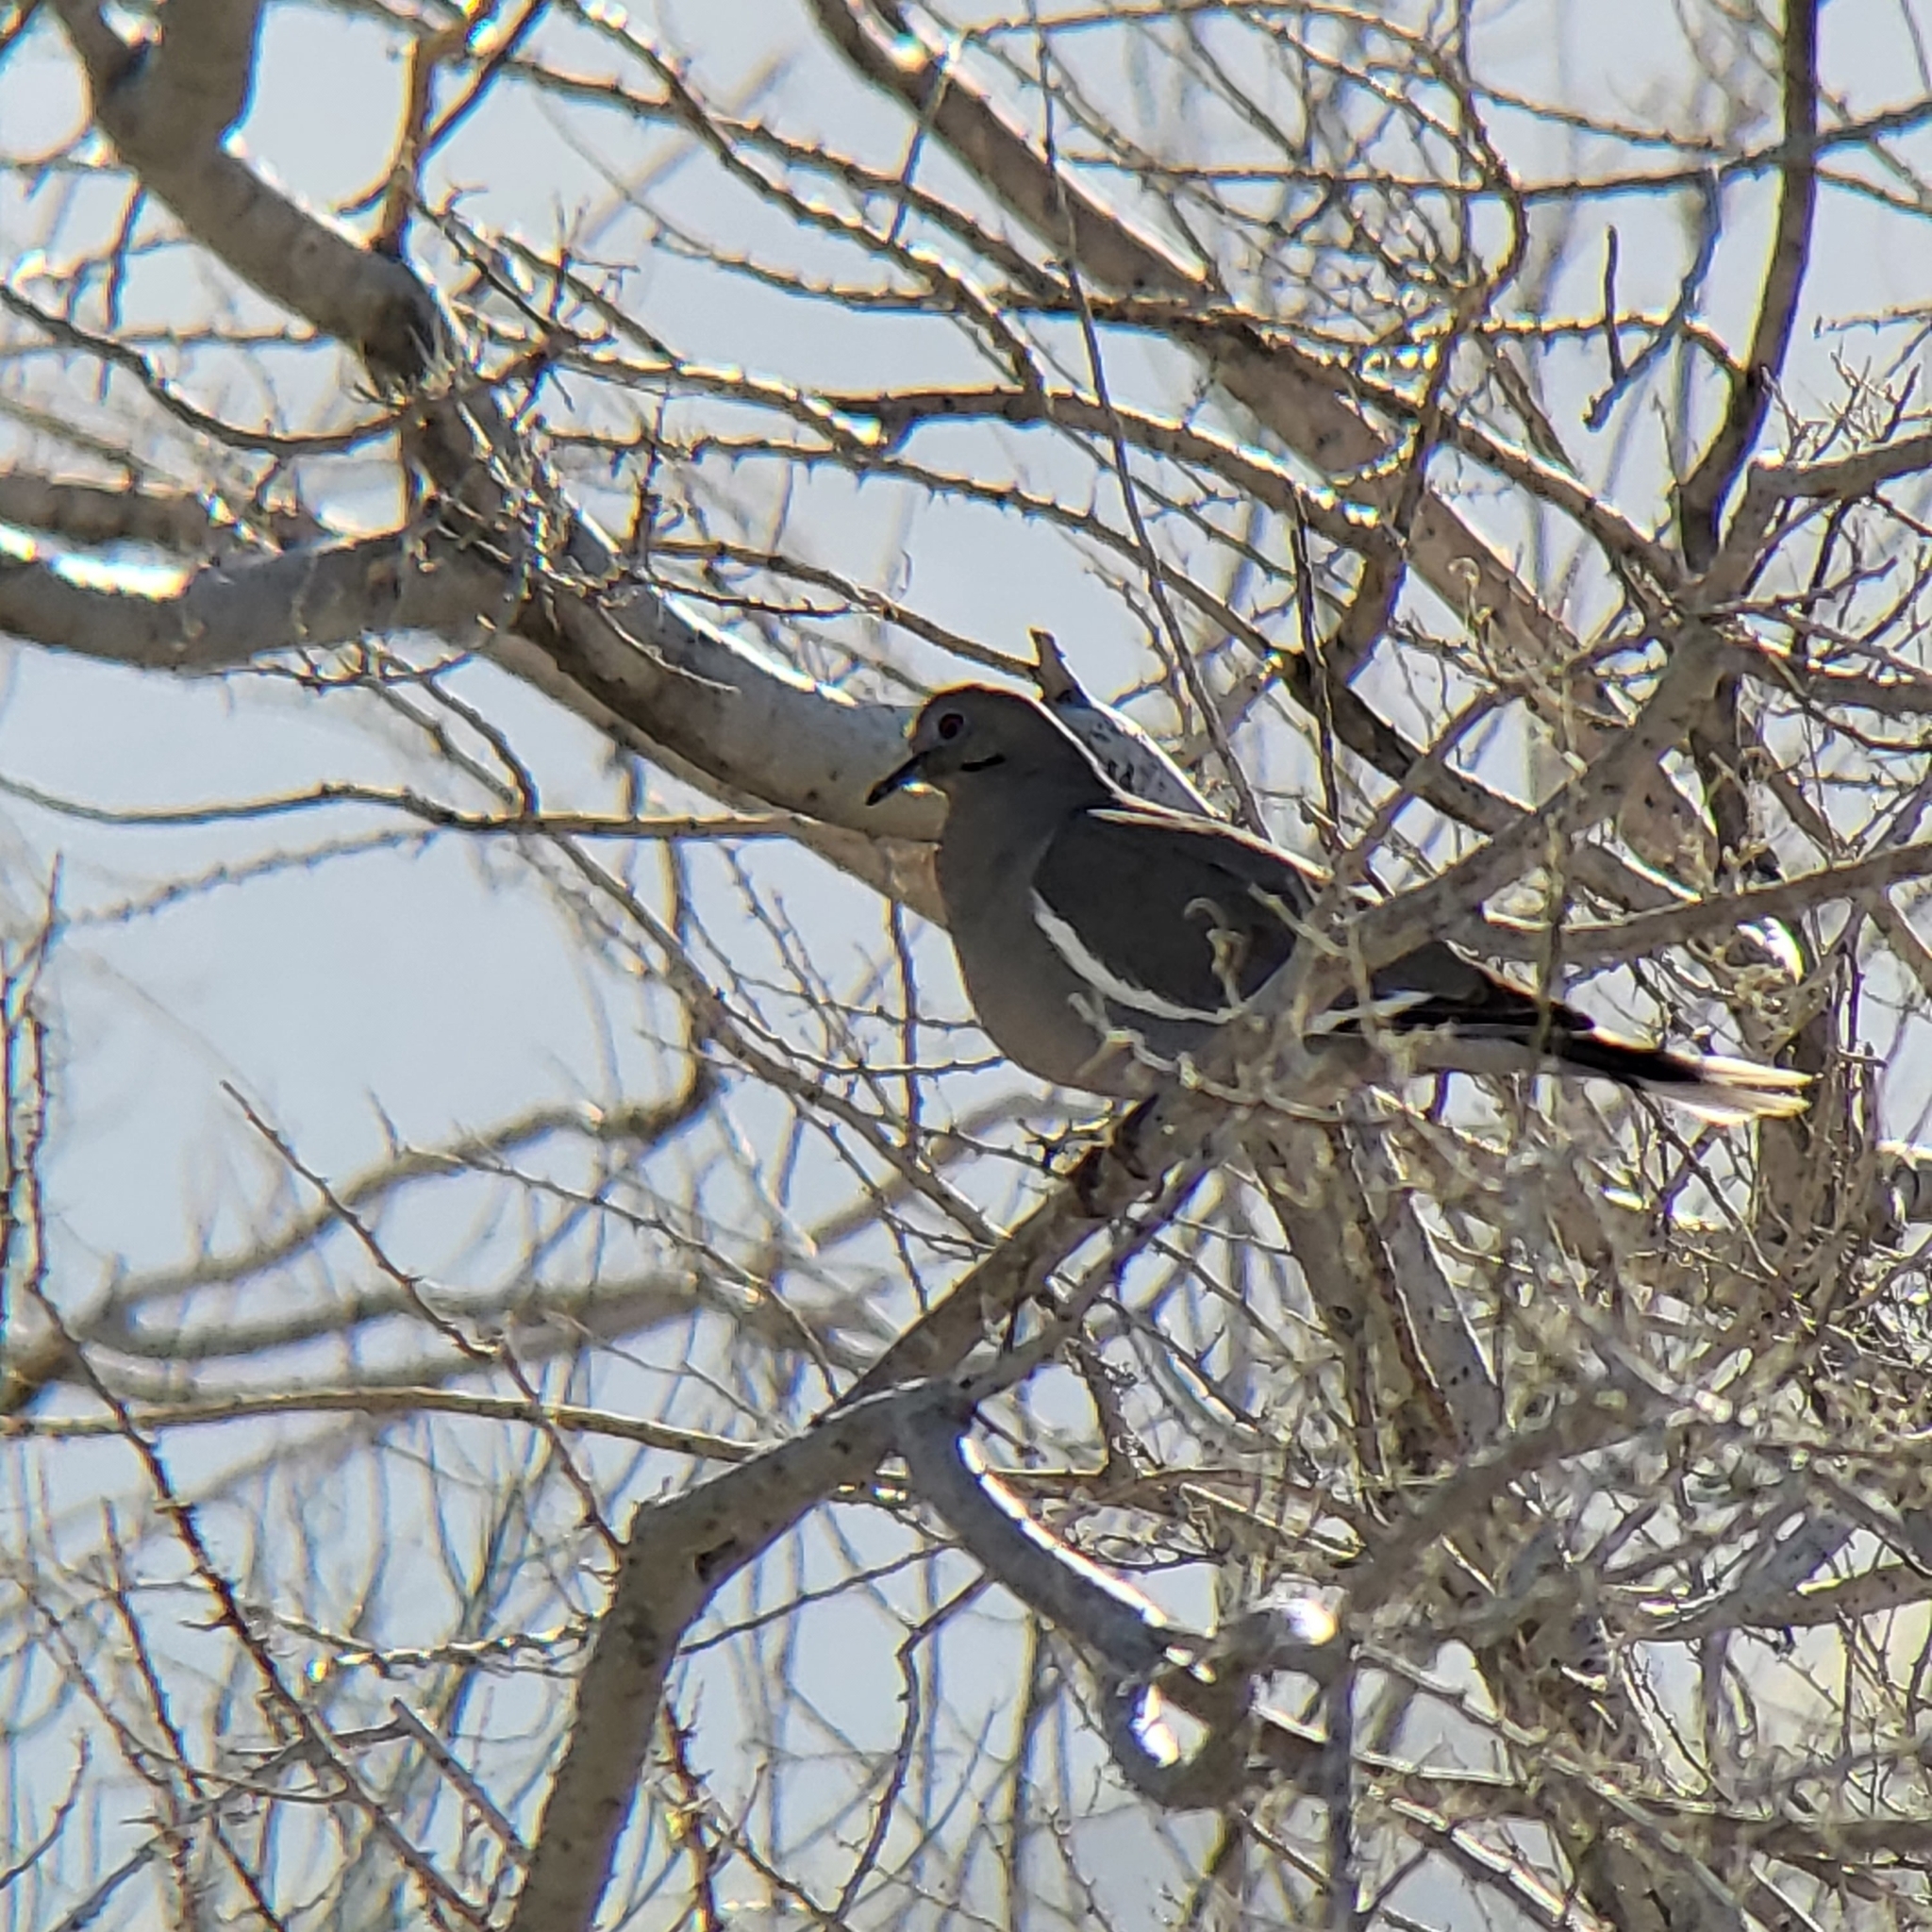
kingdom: Animalia
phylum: Chordata
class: Aves
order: Columbiformes
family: Columbidae
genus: Zenaida
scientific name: Zenaida asiatica
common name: White-winged dove
